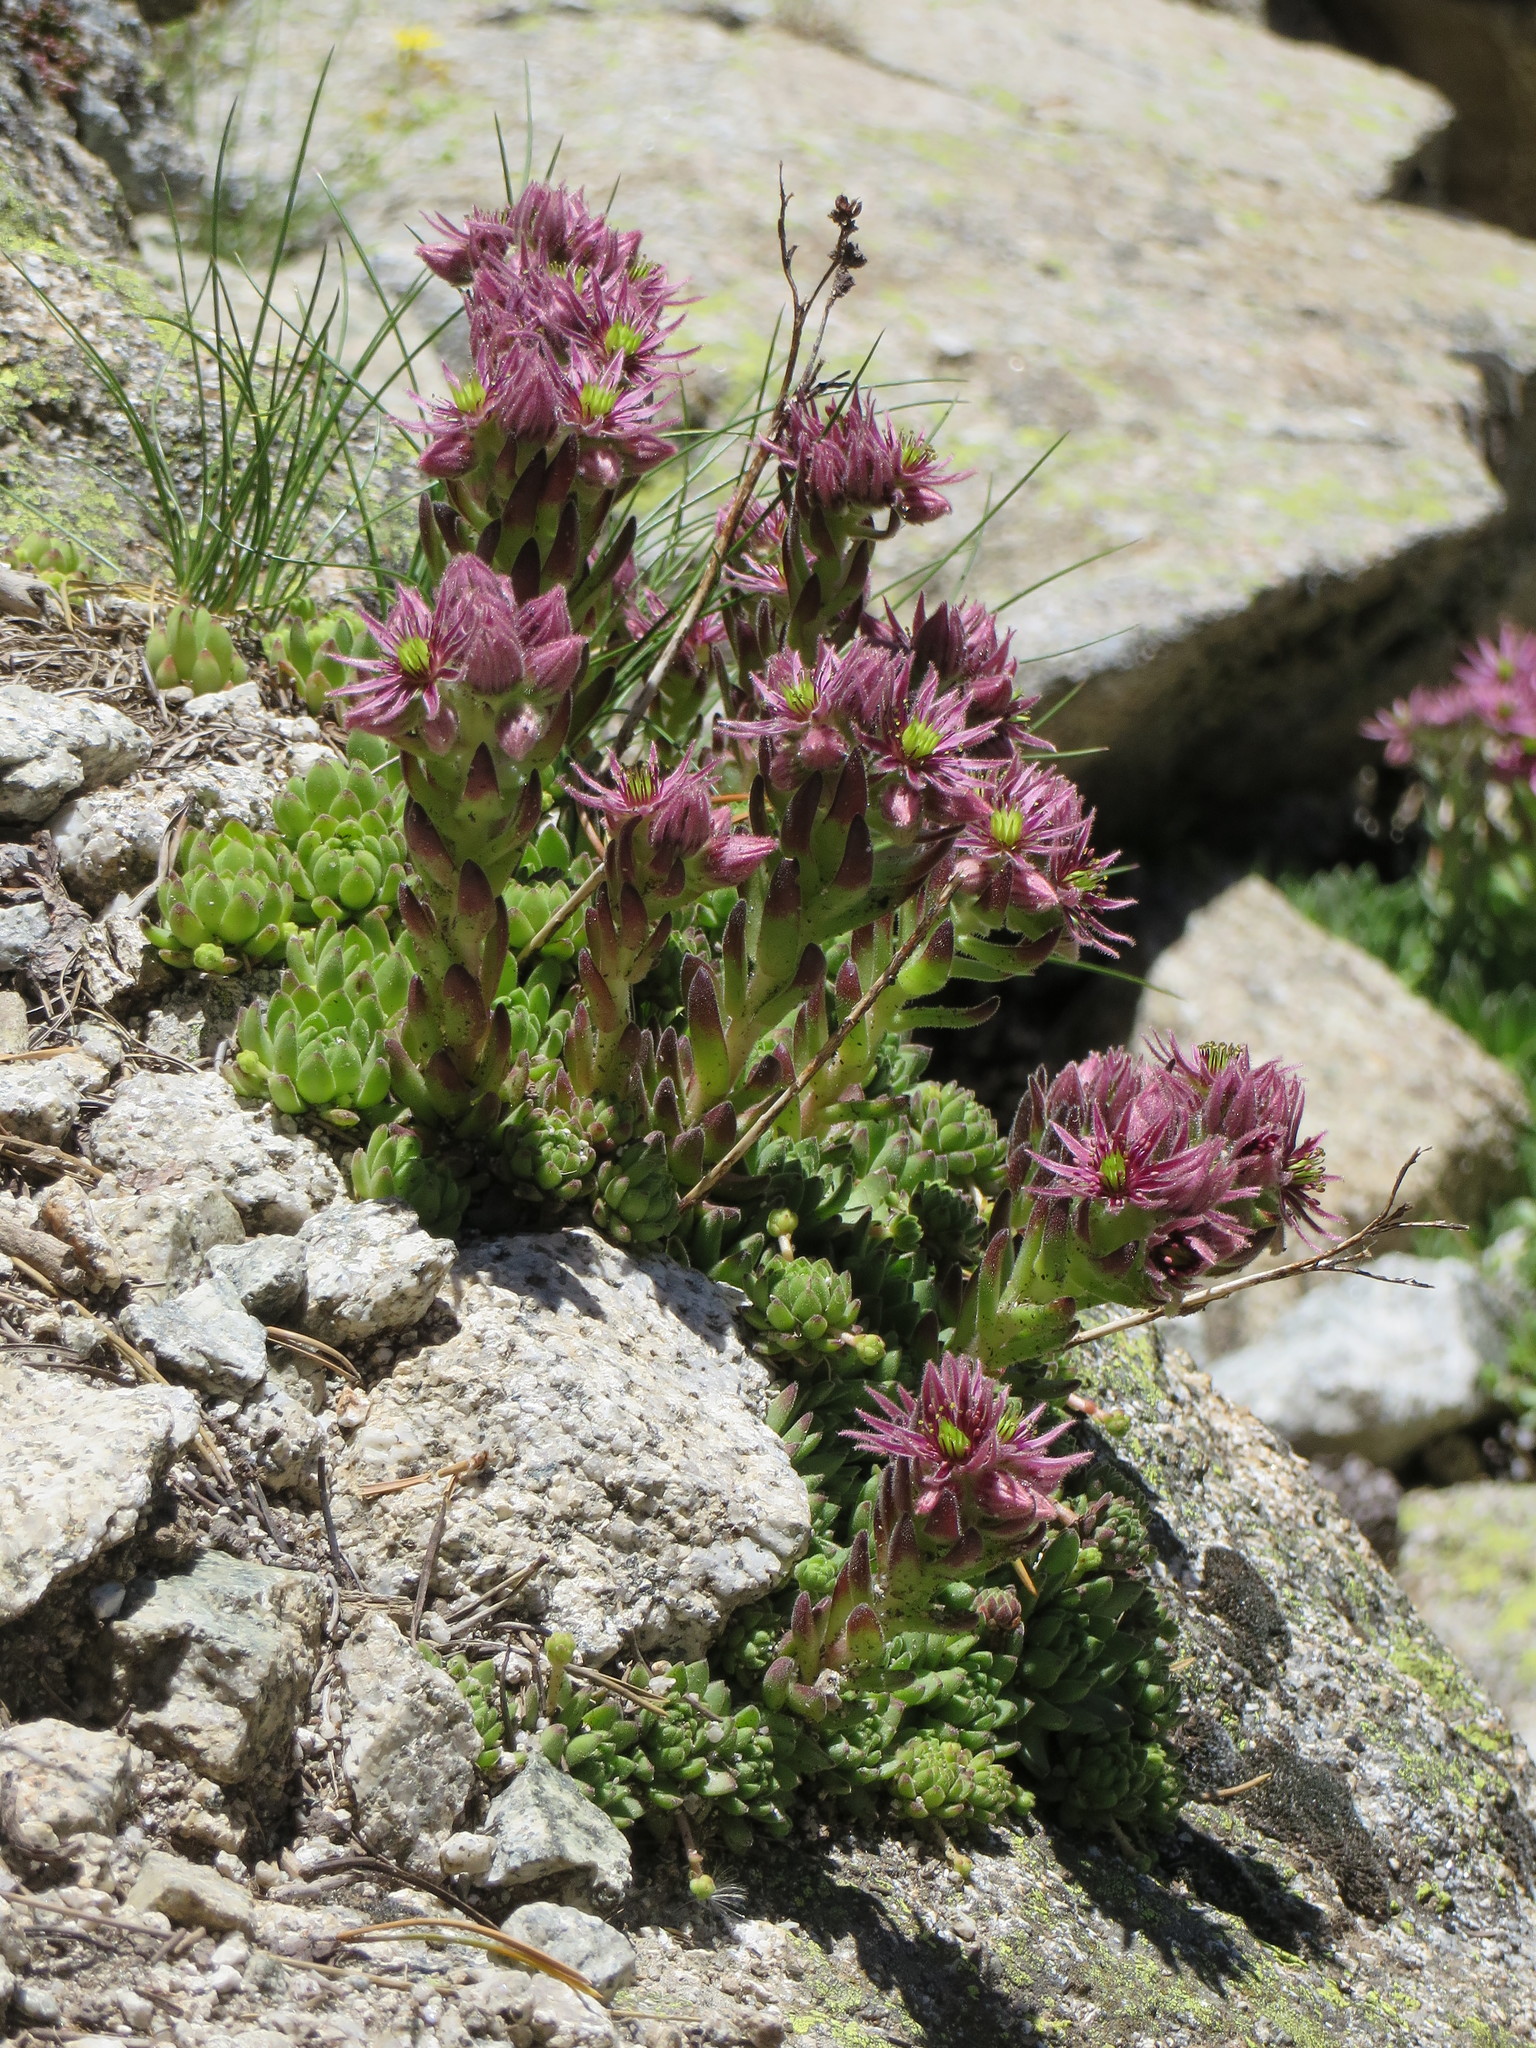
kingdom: Plantae
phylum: Tracheophyta
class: Magnoliopsida
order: Saxifragales
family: Crassulaceae
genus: Sempervivum
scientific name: Sempervivum montanum
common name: Mountain house-leek
